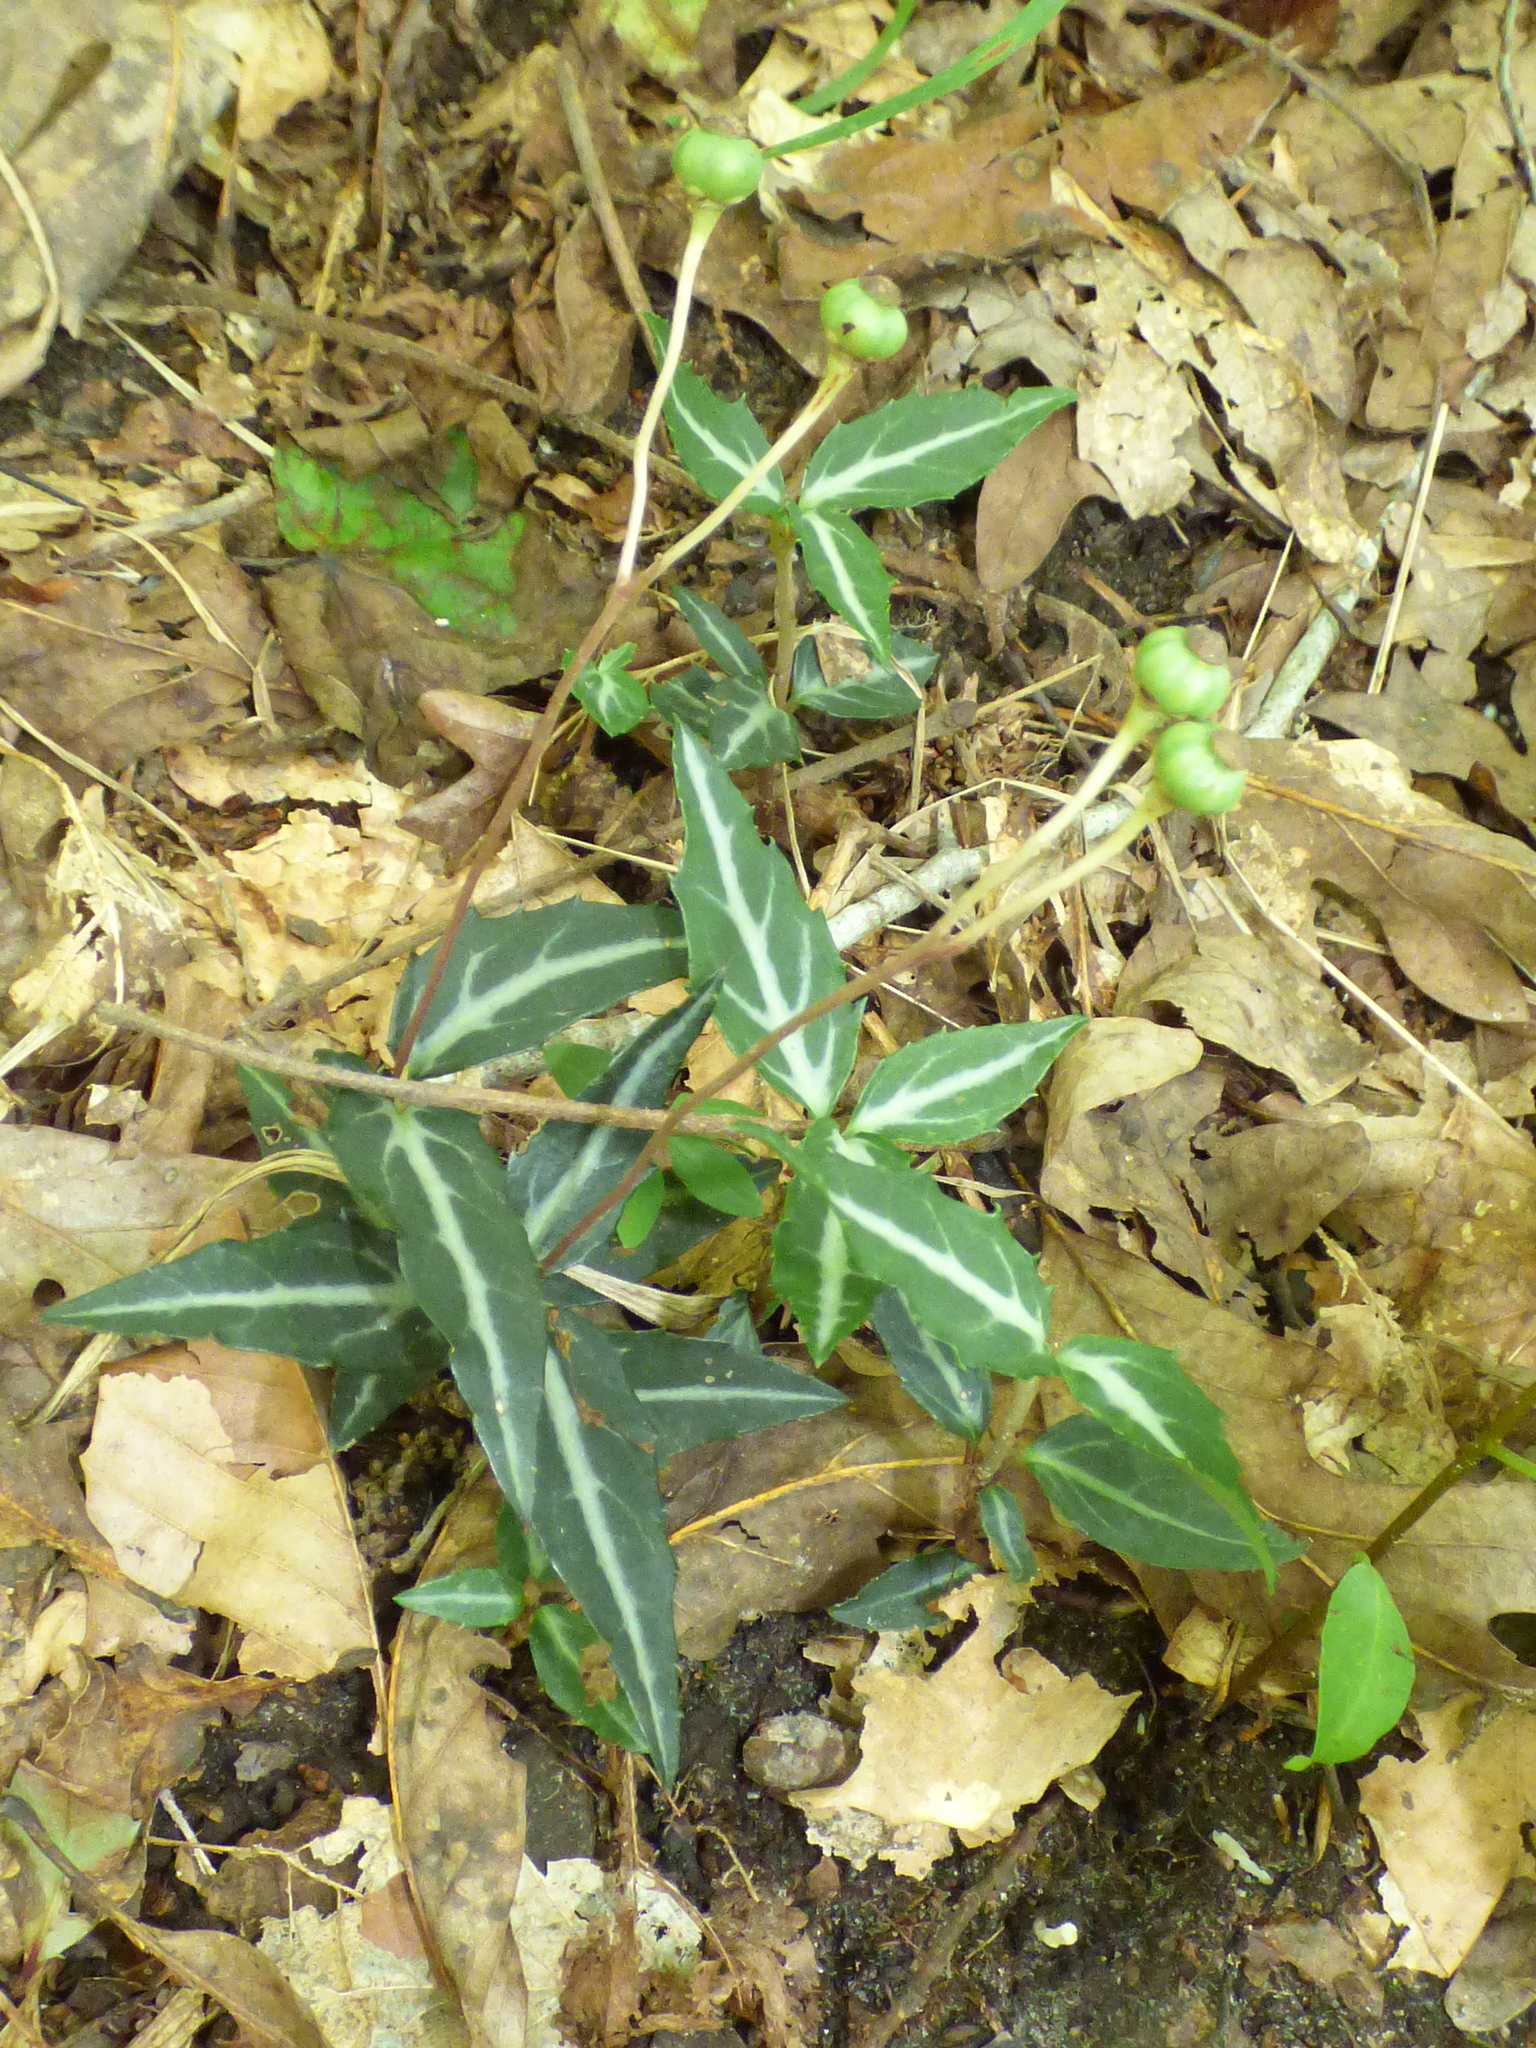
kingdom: Plantae
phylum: Tracheophyta
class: Magnoliopsida
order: Ericales
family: Ericaceae
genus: Chimaphila
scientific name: Chimaphila maculata
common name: Spotted pipsissewa
